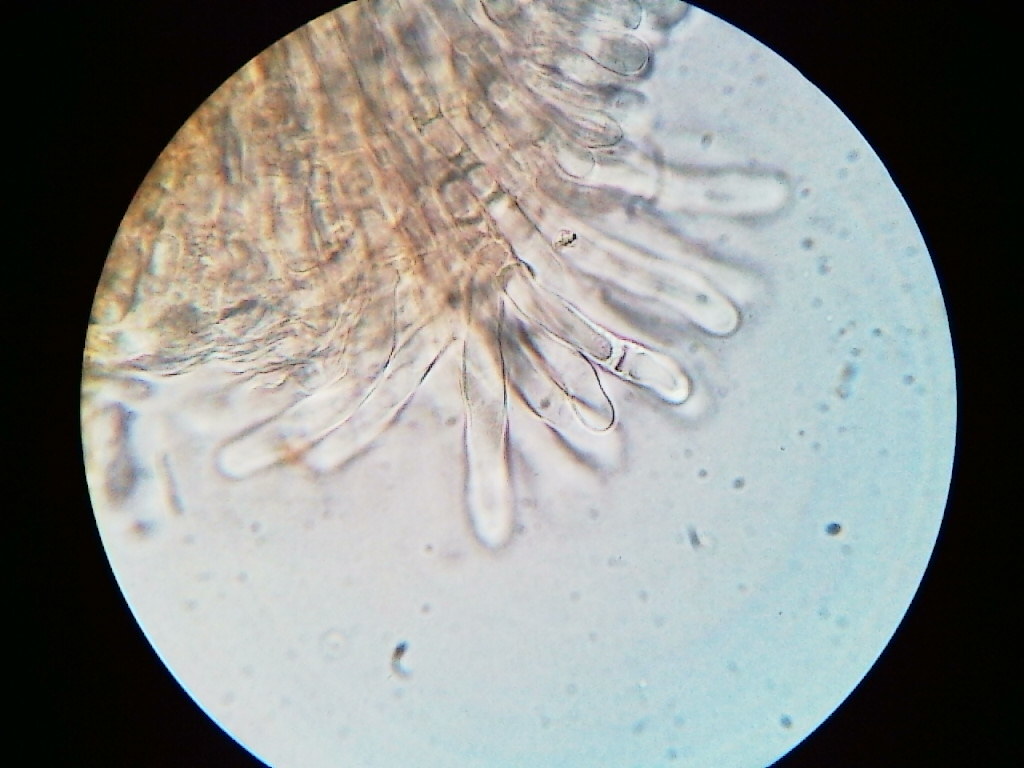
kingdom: Fungi
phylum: Basidiomycota
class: Agaricomycetes
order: Agaricales
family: Tubariaceae
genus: Tubaria
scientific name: Tubaria confragosa
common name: Ringed twiglet
